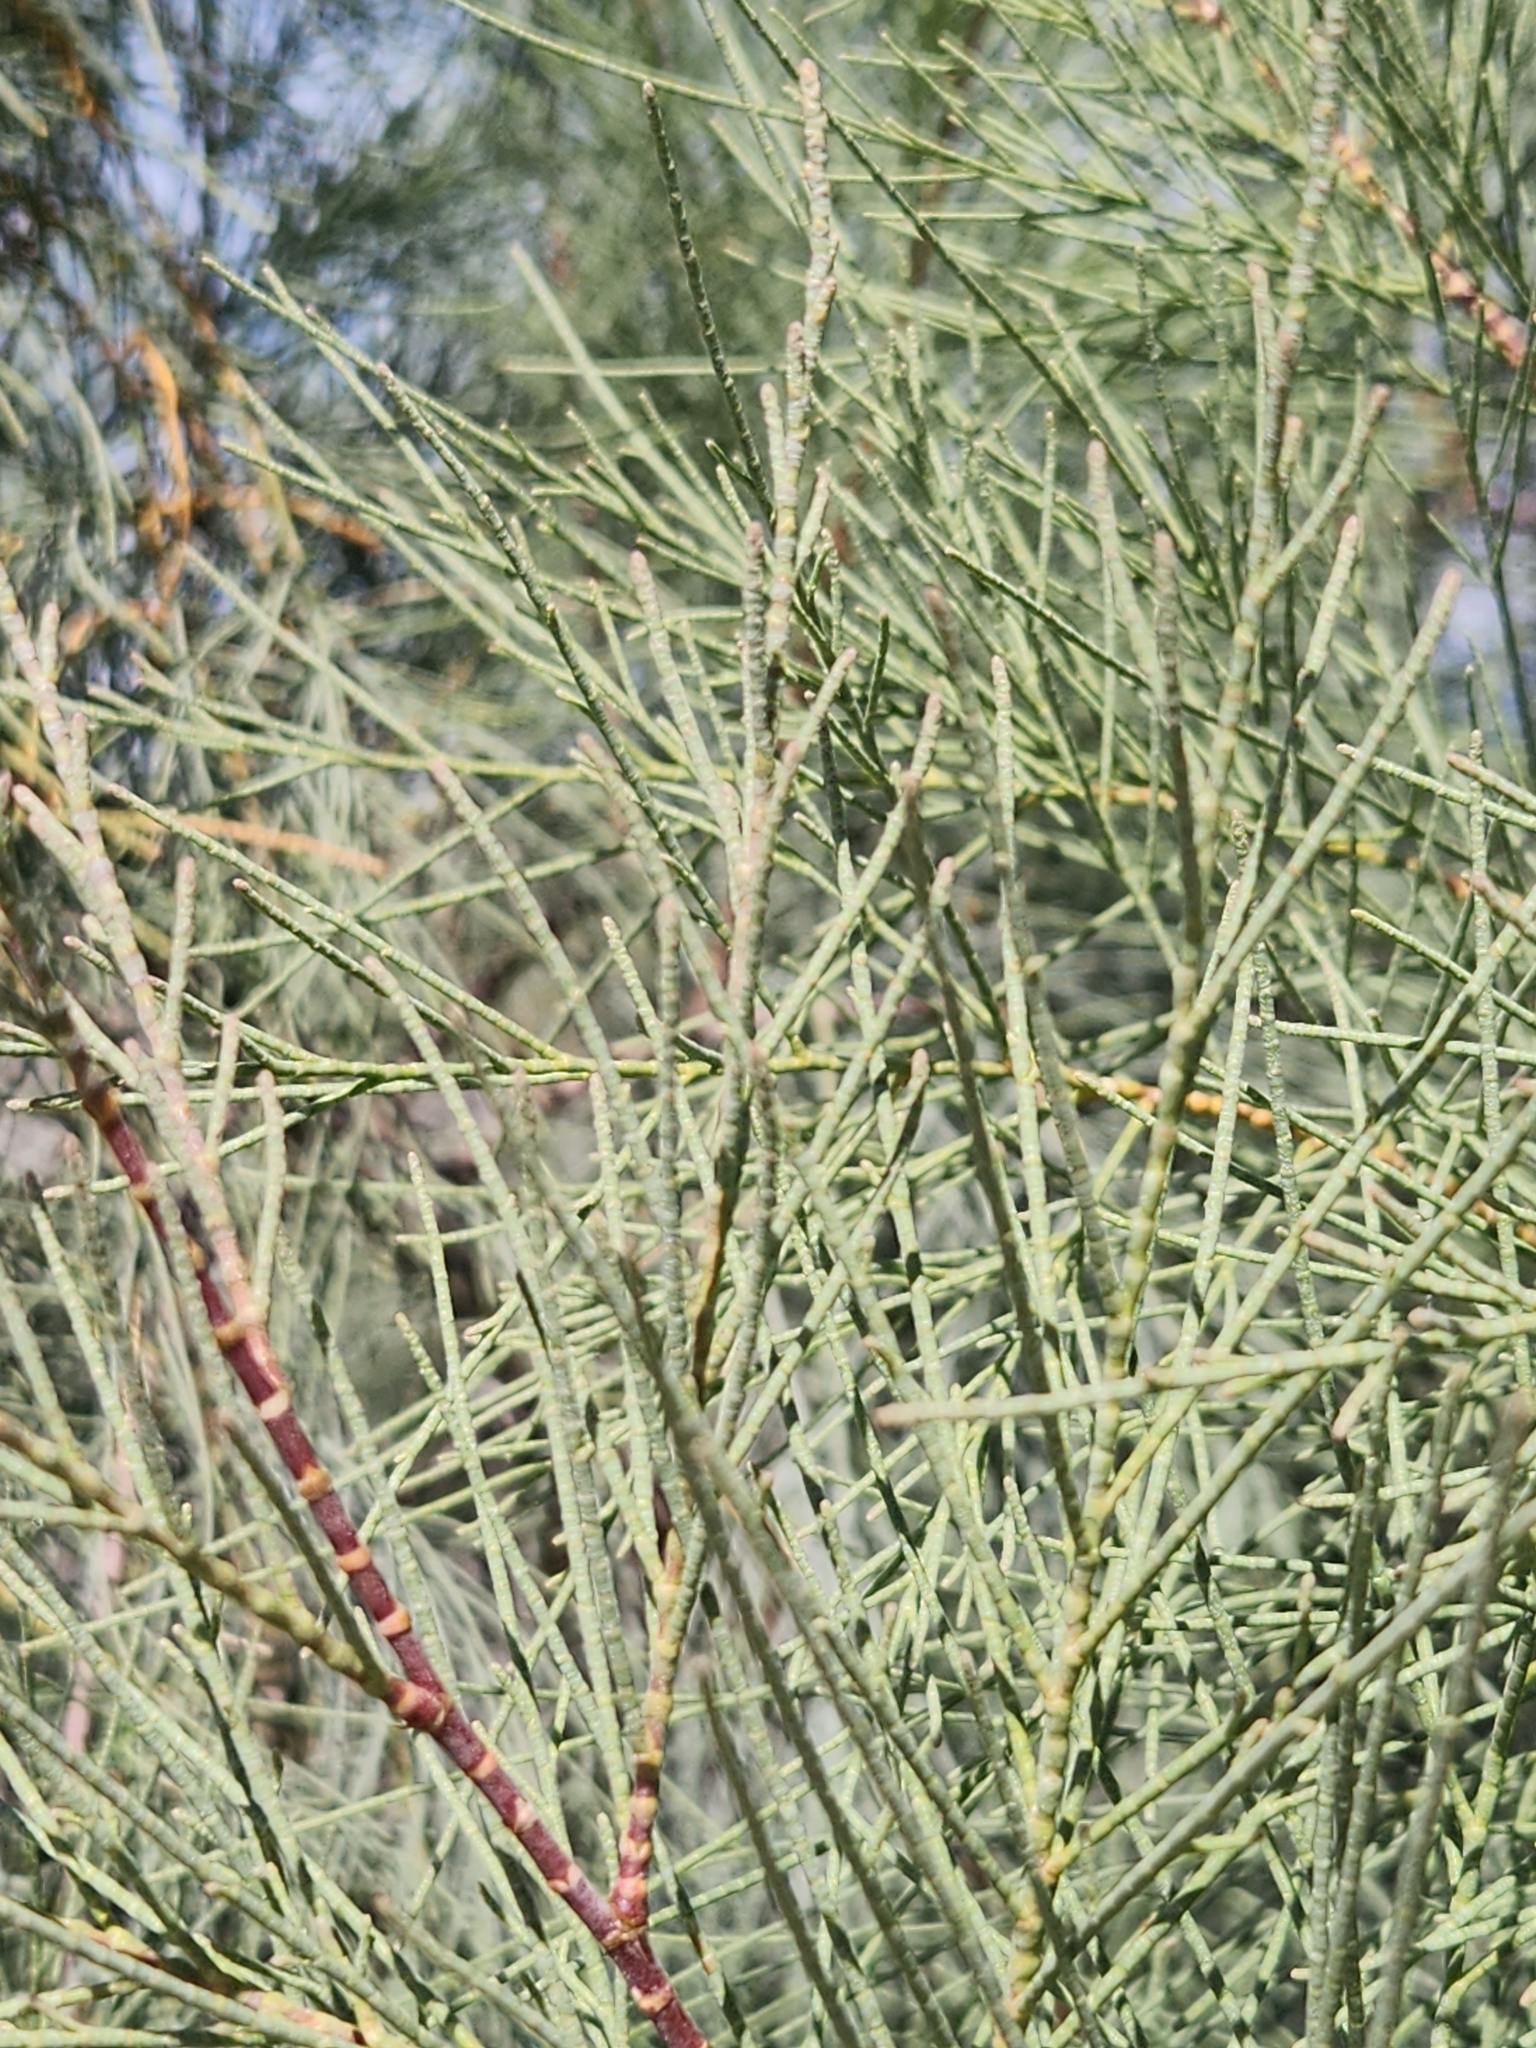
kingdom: Plantae
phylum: Tracheophyta
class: Magnoliopsida
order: Caryophyllales
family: Tamaricaceae
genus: Tamarix
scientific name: Tamarix aphylla
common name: Athel tamarisk
